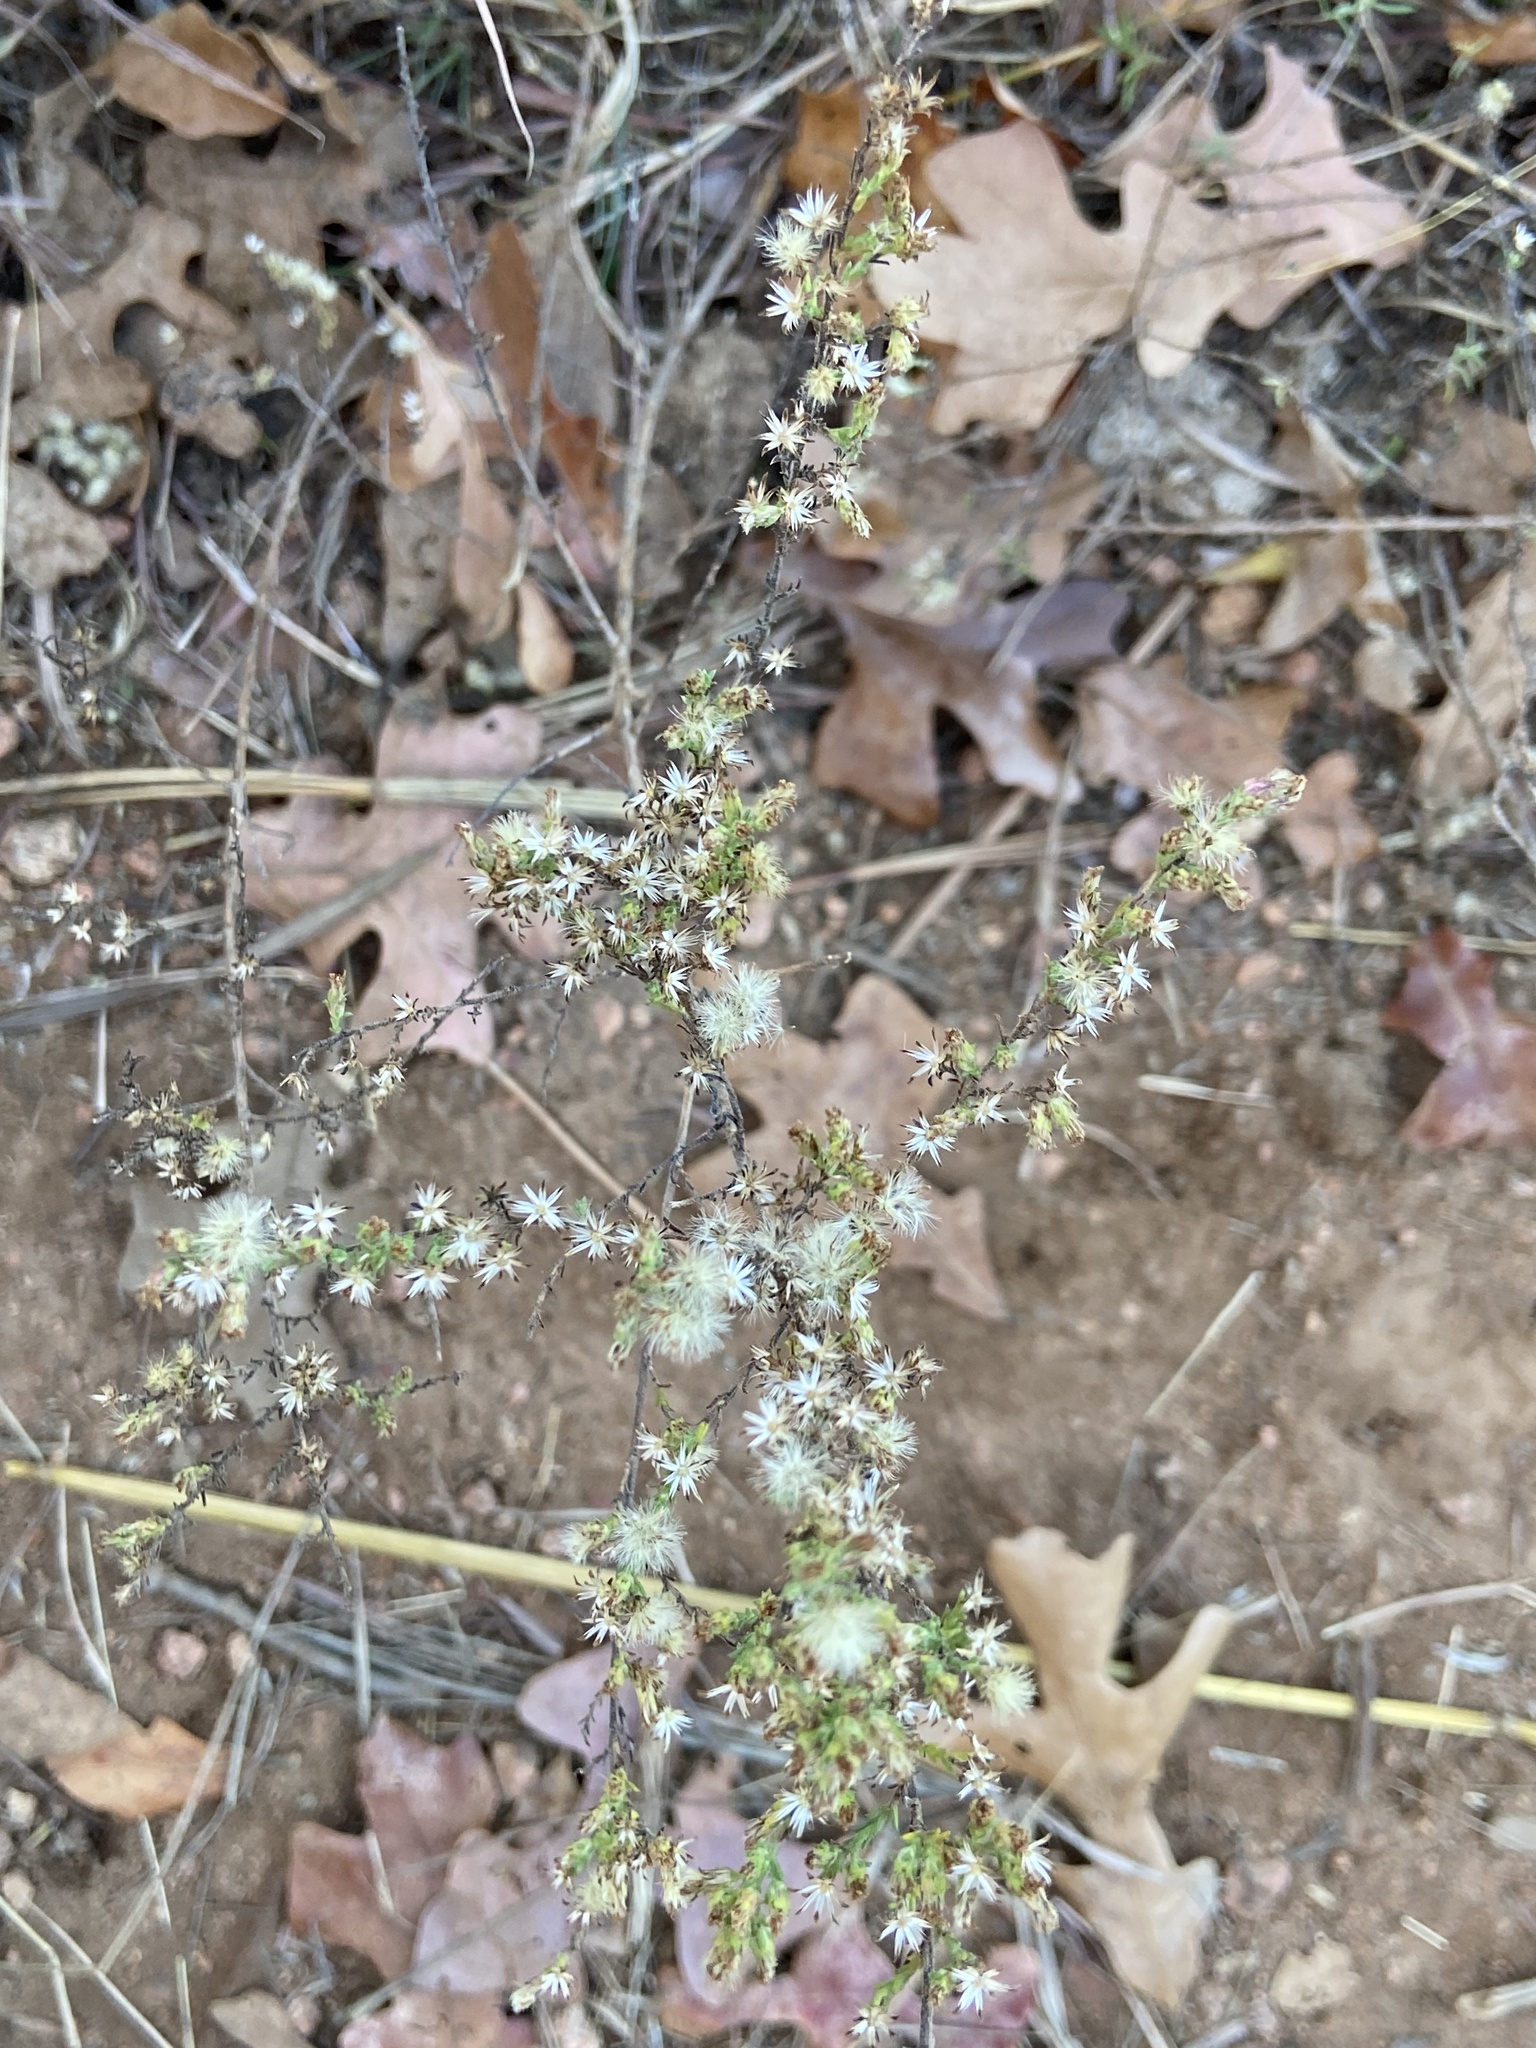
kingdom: Plantae
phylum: Tracheophyta
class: Magnoliopsida
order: Asterales
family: Asteraceae
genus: Symphyotrichum
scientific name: Symphyotrichum ericoides
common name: Heath aster
